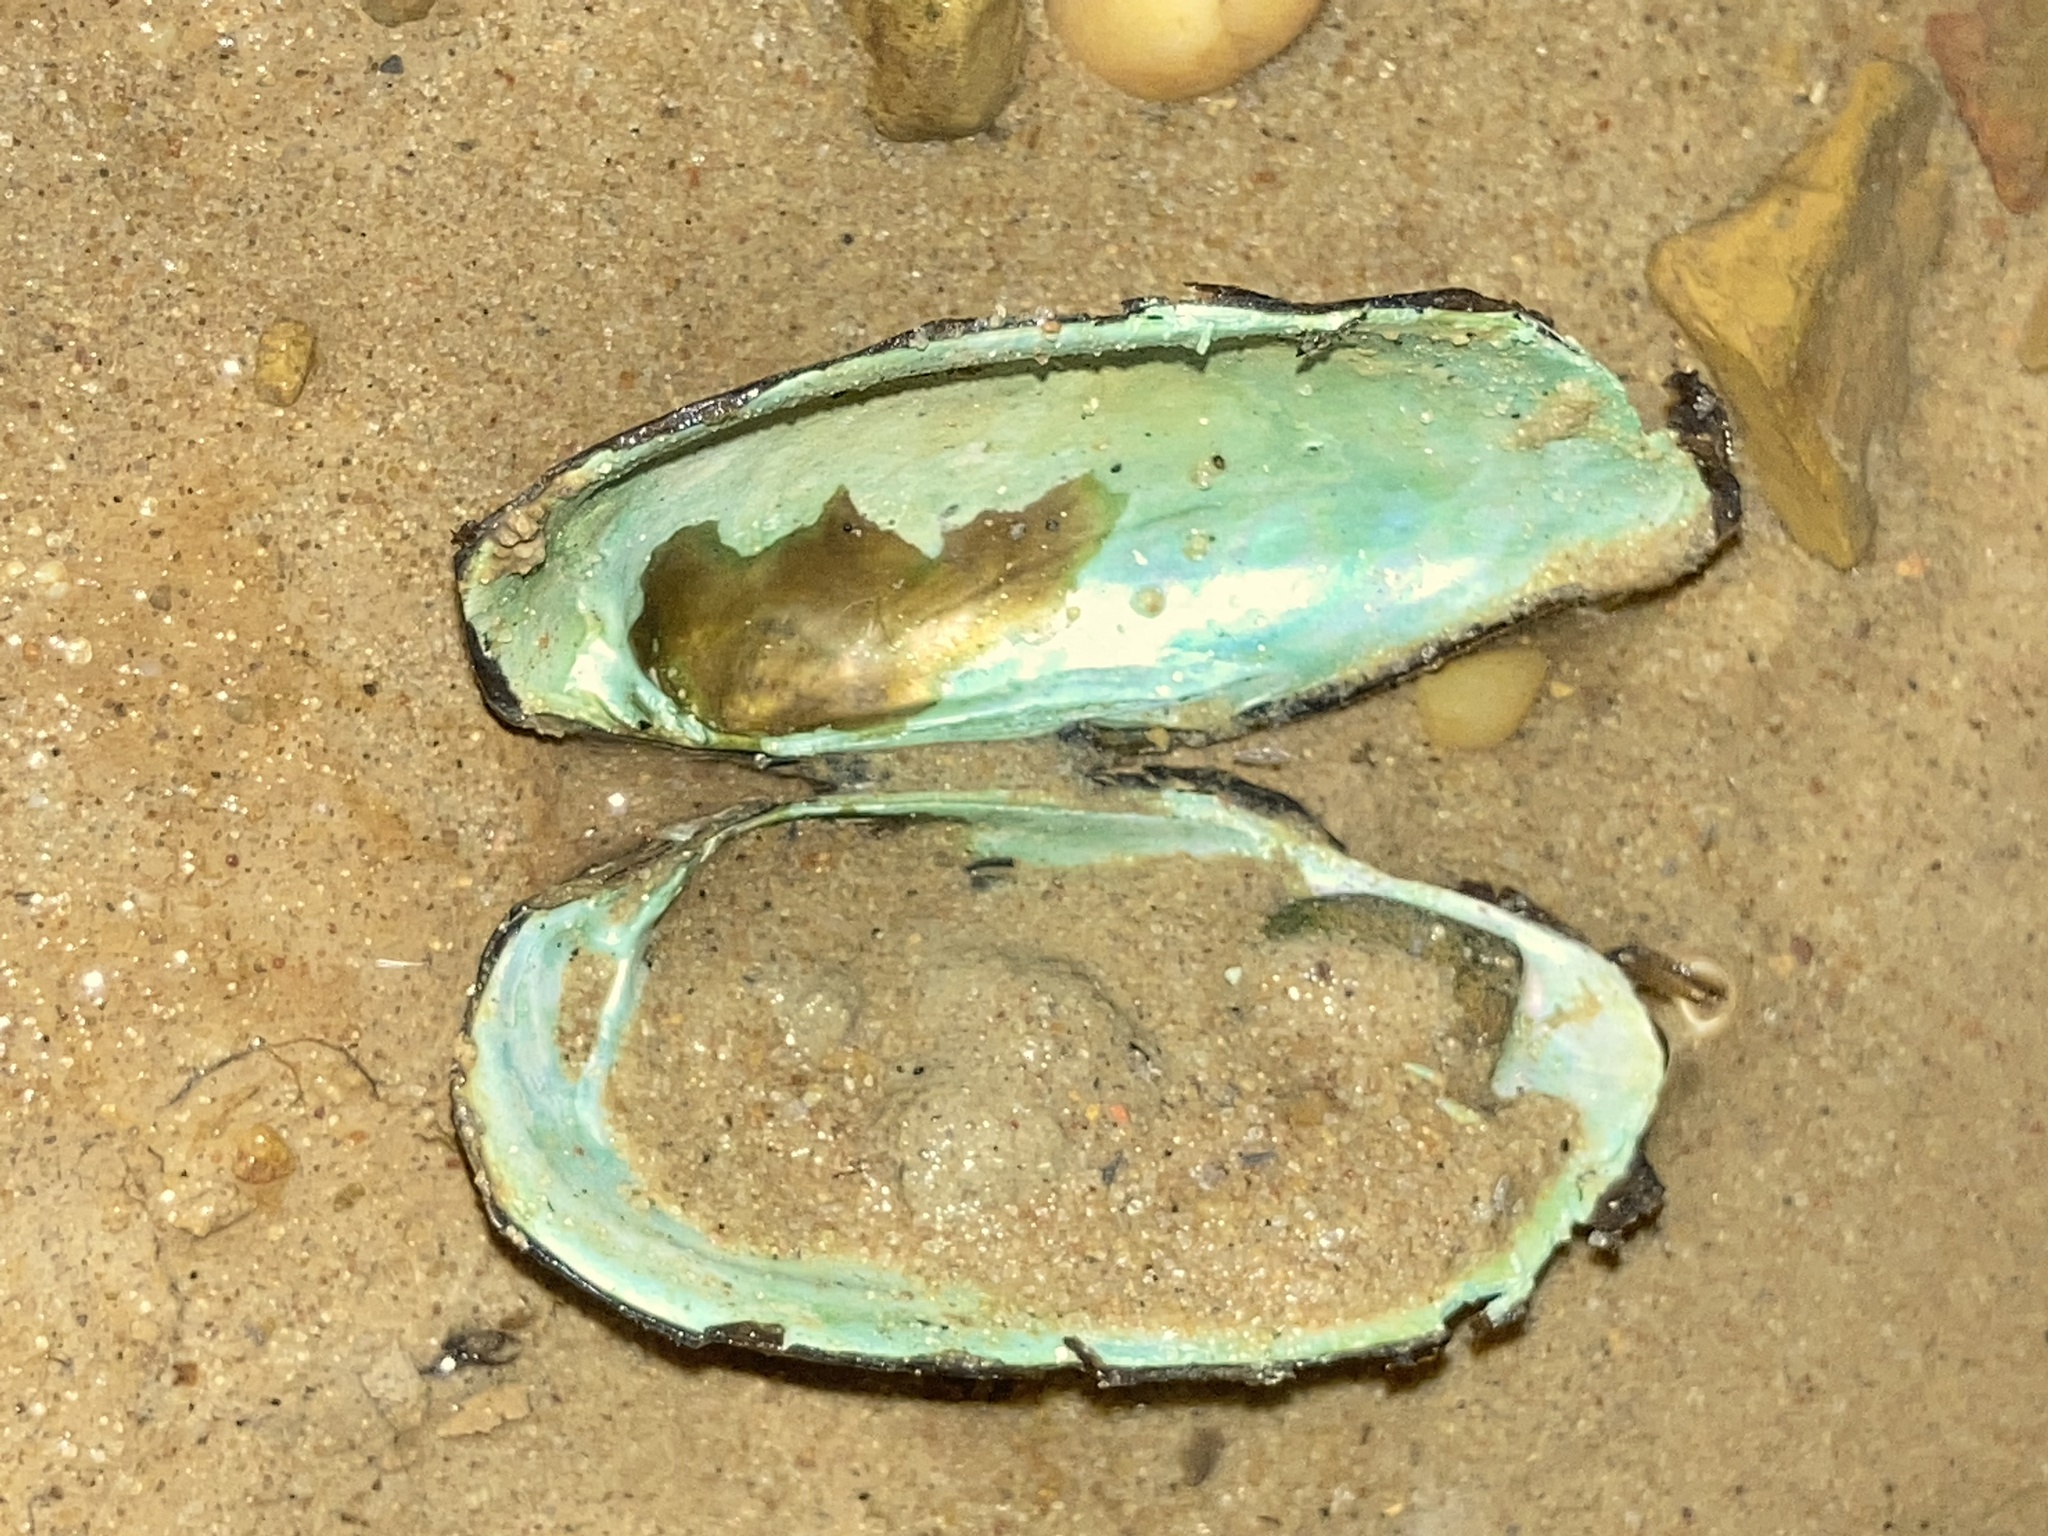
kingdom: Animalia
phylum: Mollusca
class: Bivalvia
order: Unionida
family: Unionidae
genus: Sagittunio
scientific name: Sagittunio subrostratus
